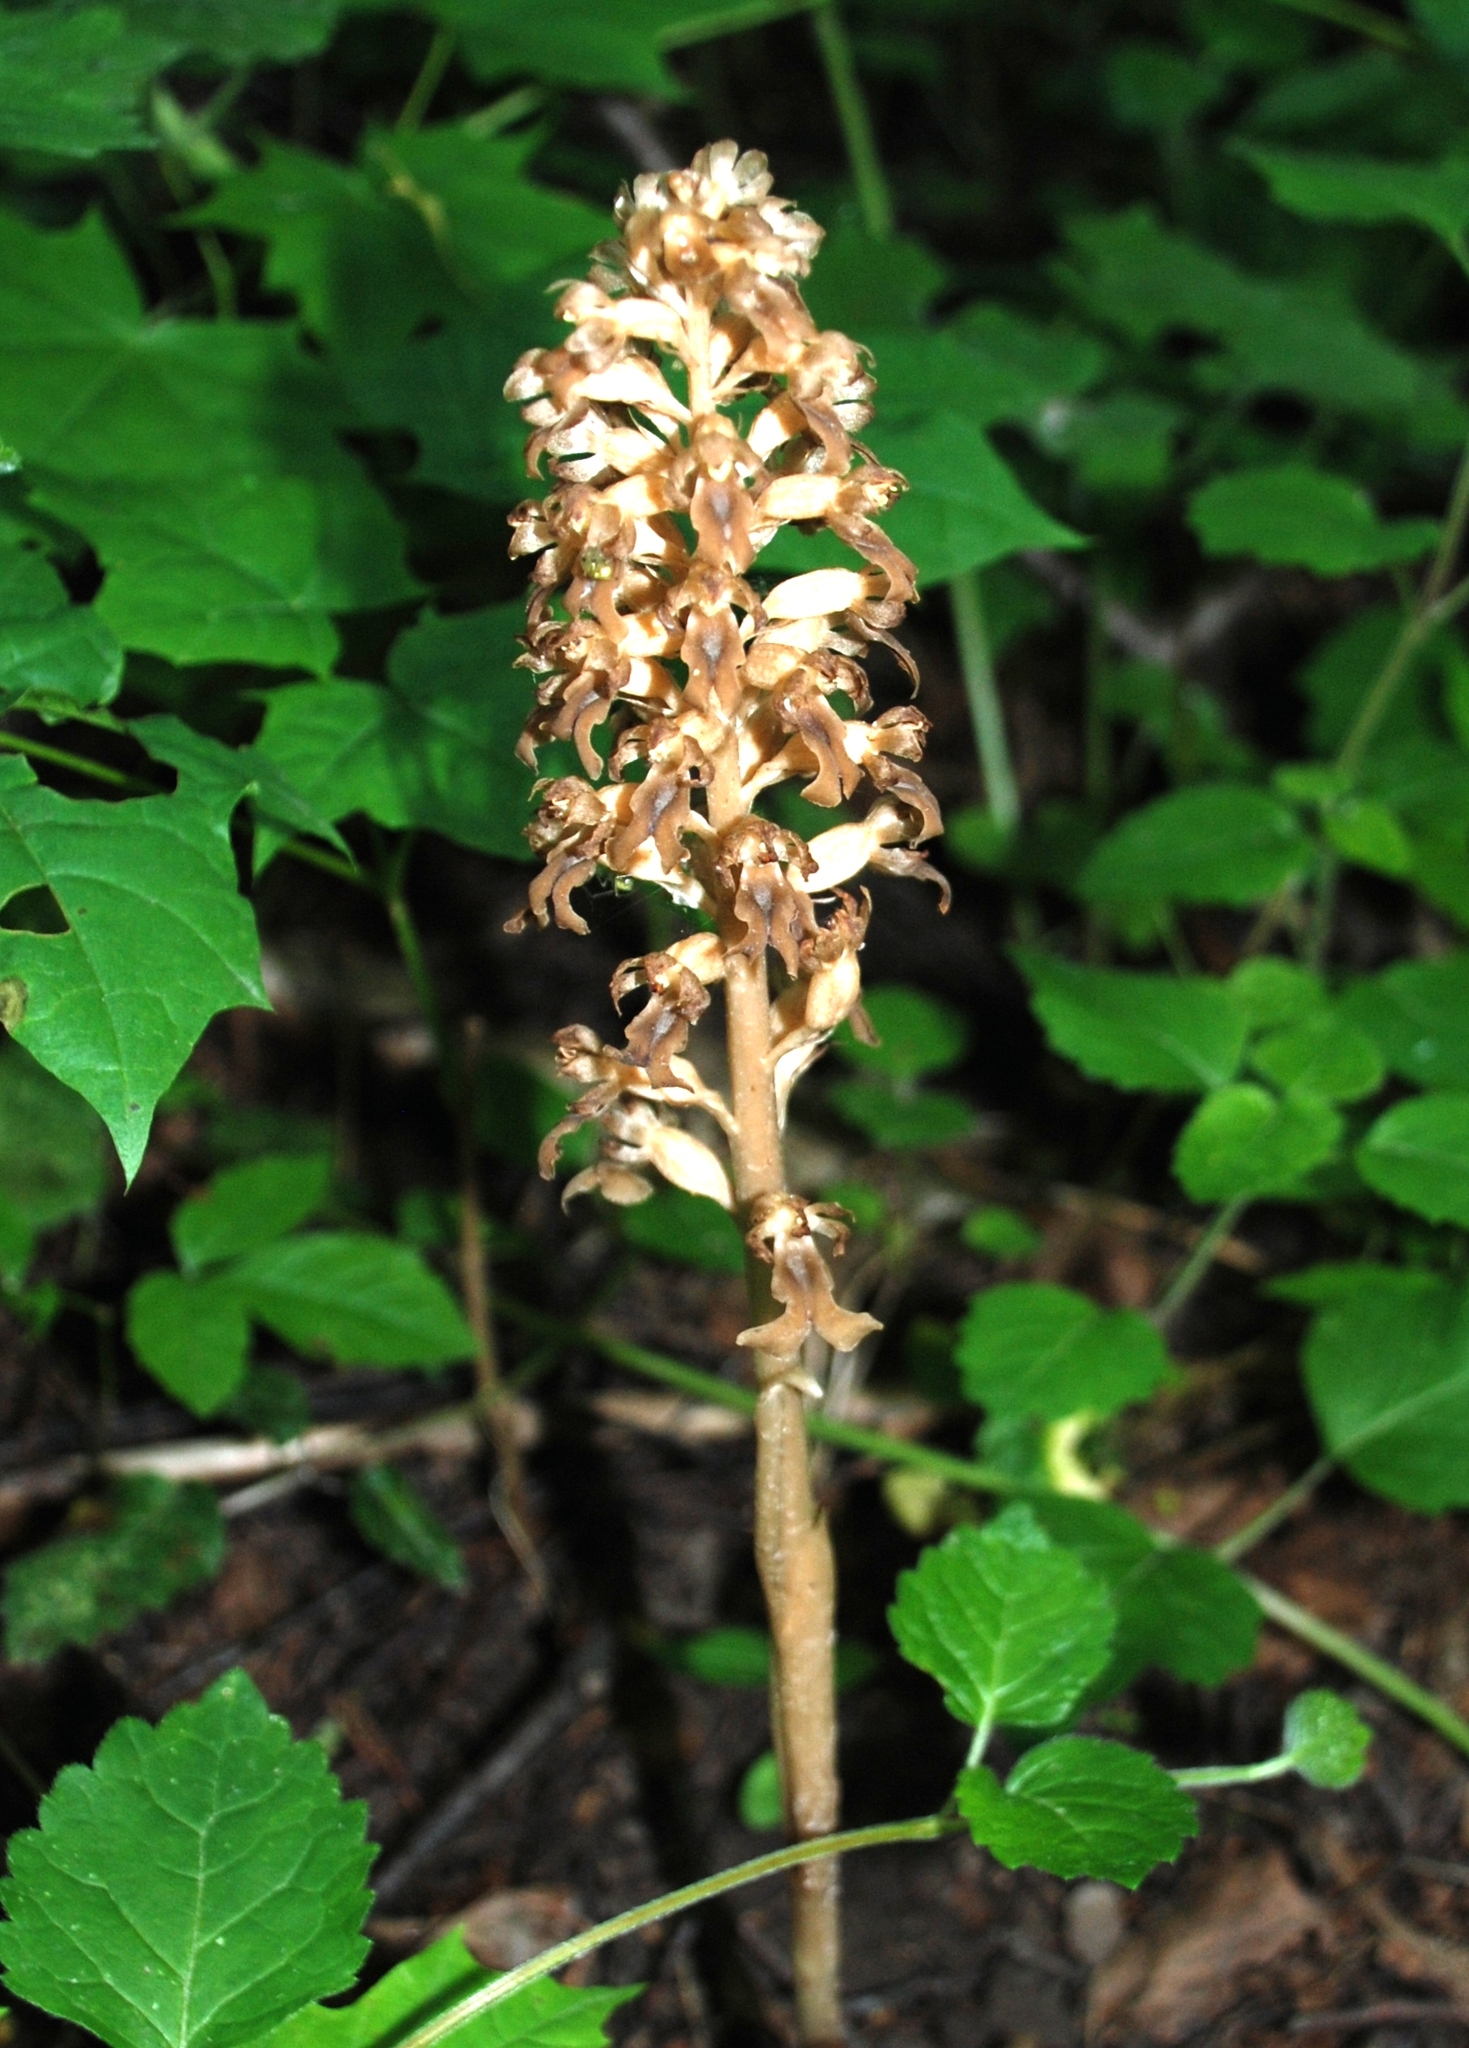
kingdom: Plantae
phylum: Tracheophyta
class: Liliopsida
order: Asparagales
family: Orchidaceae
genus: Neottia
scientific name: Neottia nidus-avis
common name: Bird's-nest orchid
